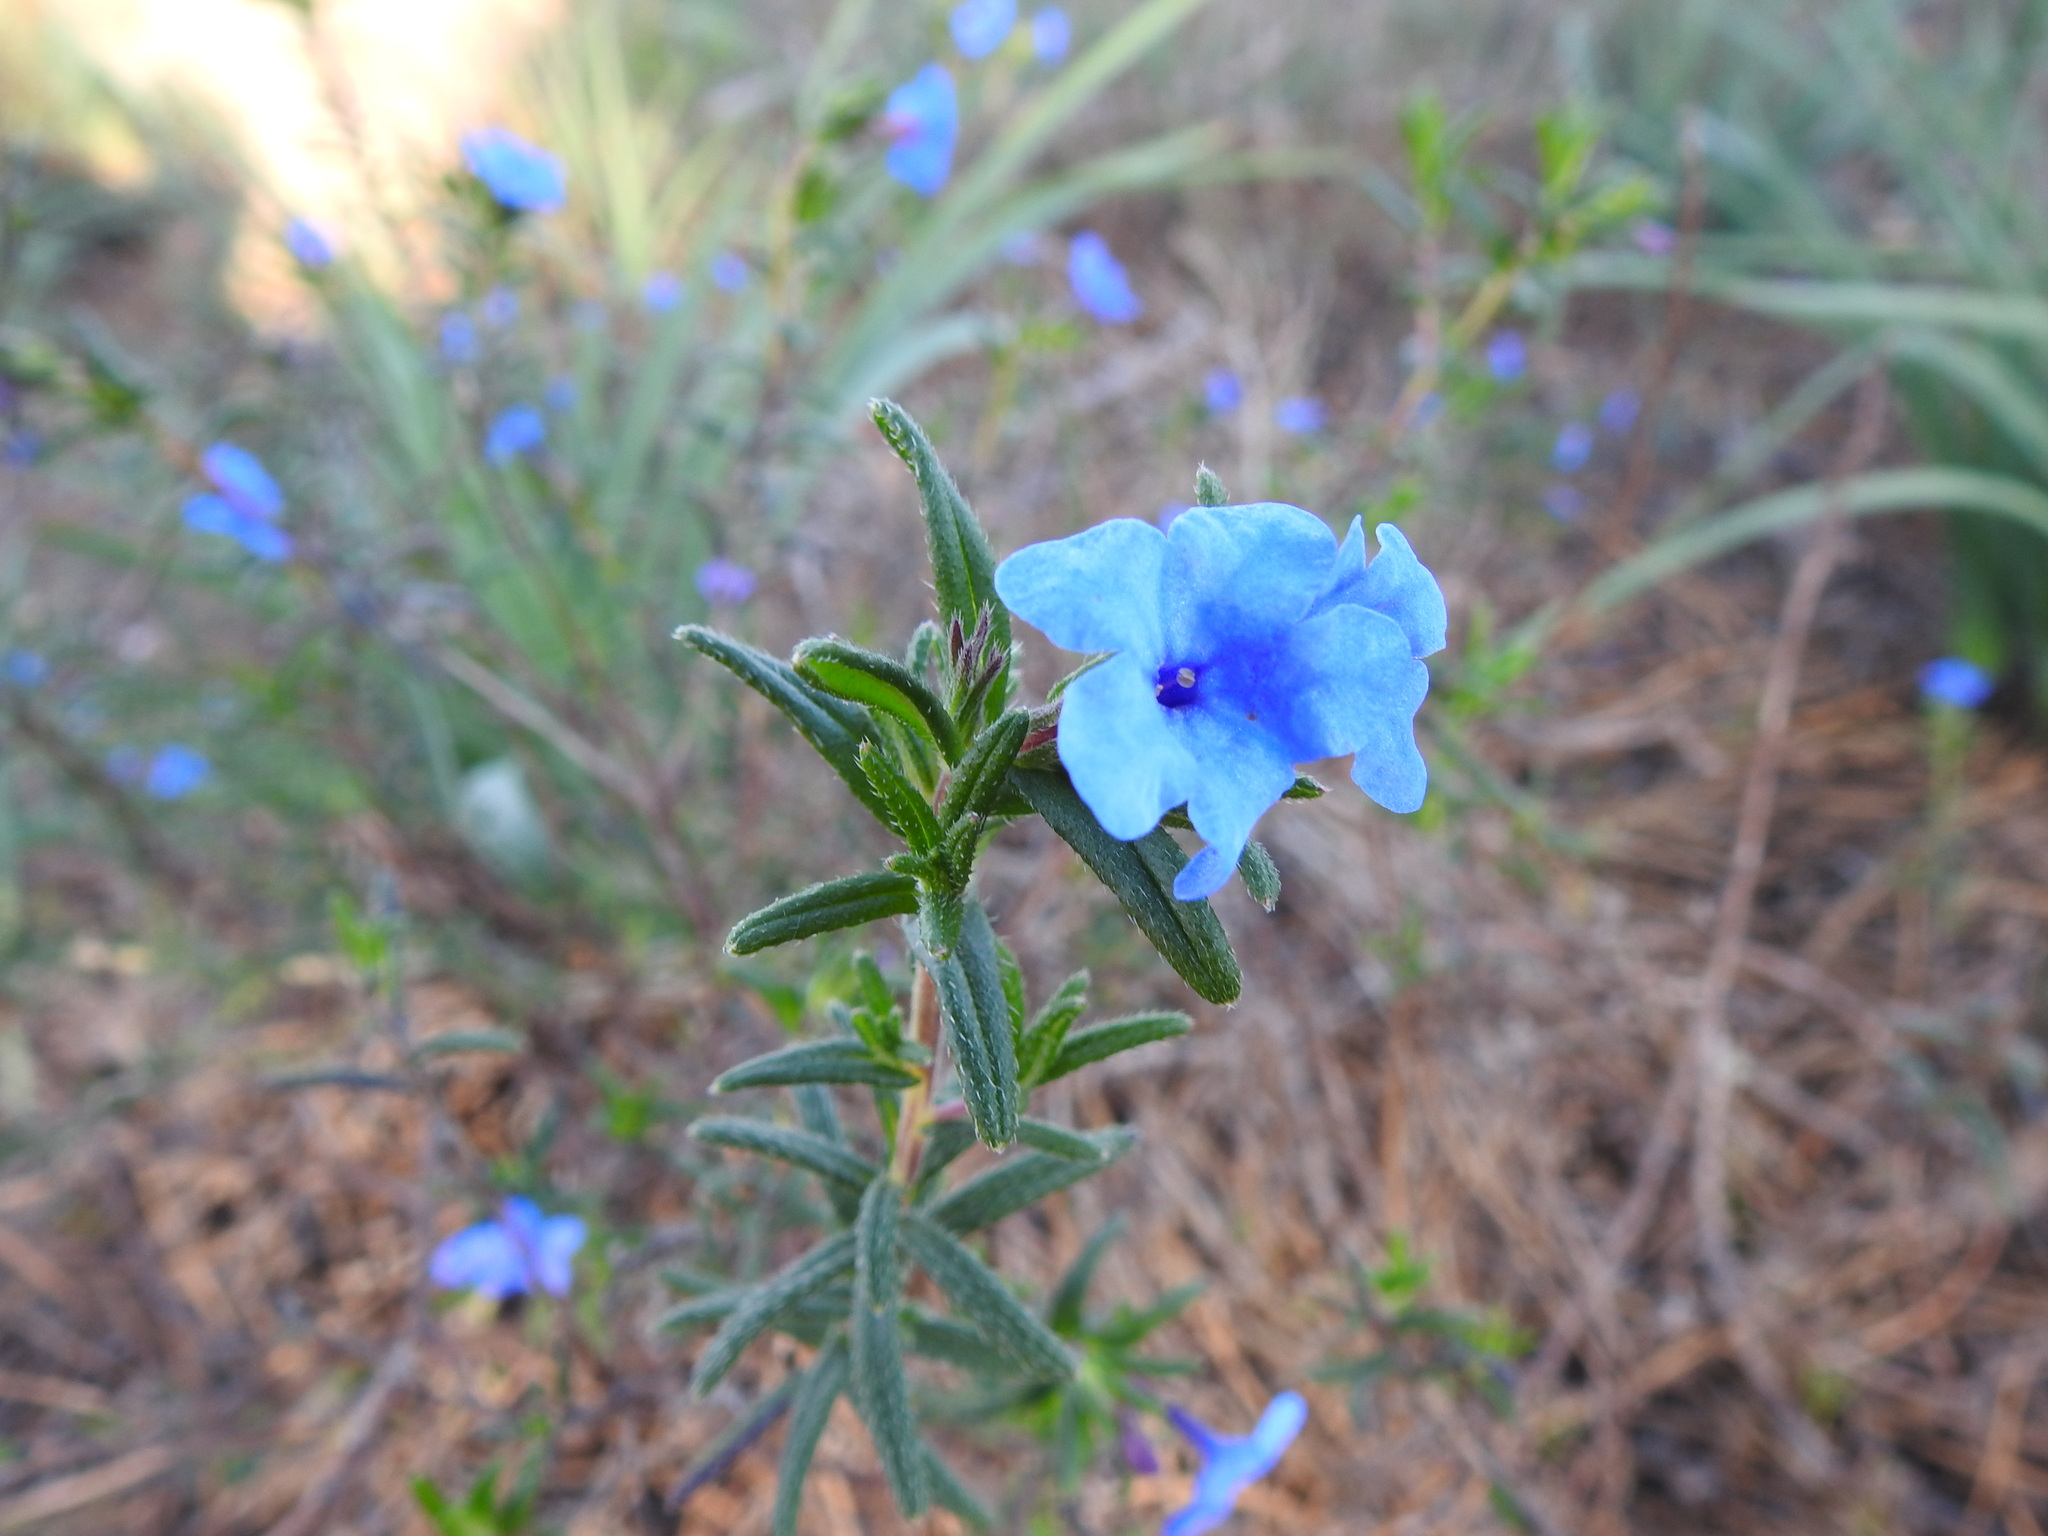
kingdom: Plantae
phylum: Tracheophyta
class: Magnoliopsida
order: Boraginales
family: Boraginaceae
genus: Glandora
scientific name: Glandora prostrata
